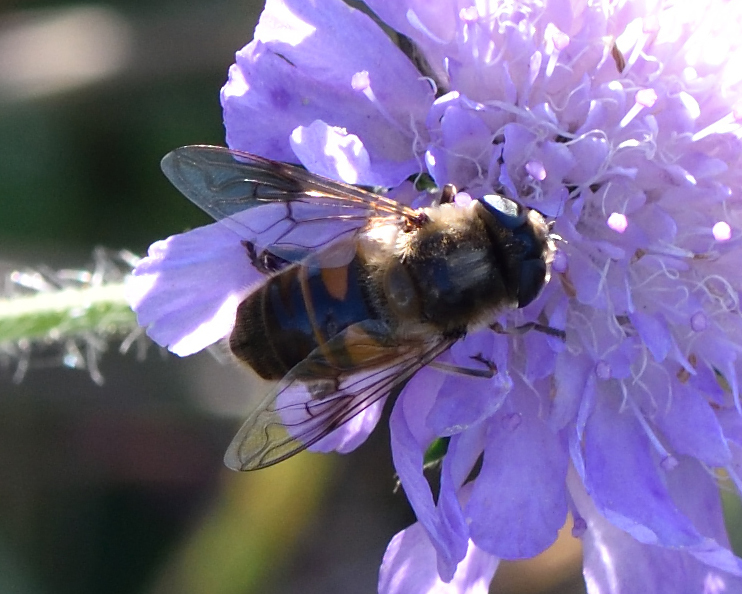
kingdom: Animalia
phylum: Arthropoda
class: Insecta
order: Diptera
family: Syrphidae
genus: Eristalis
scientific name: Eristalis tenax
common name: Drone fly
